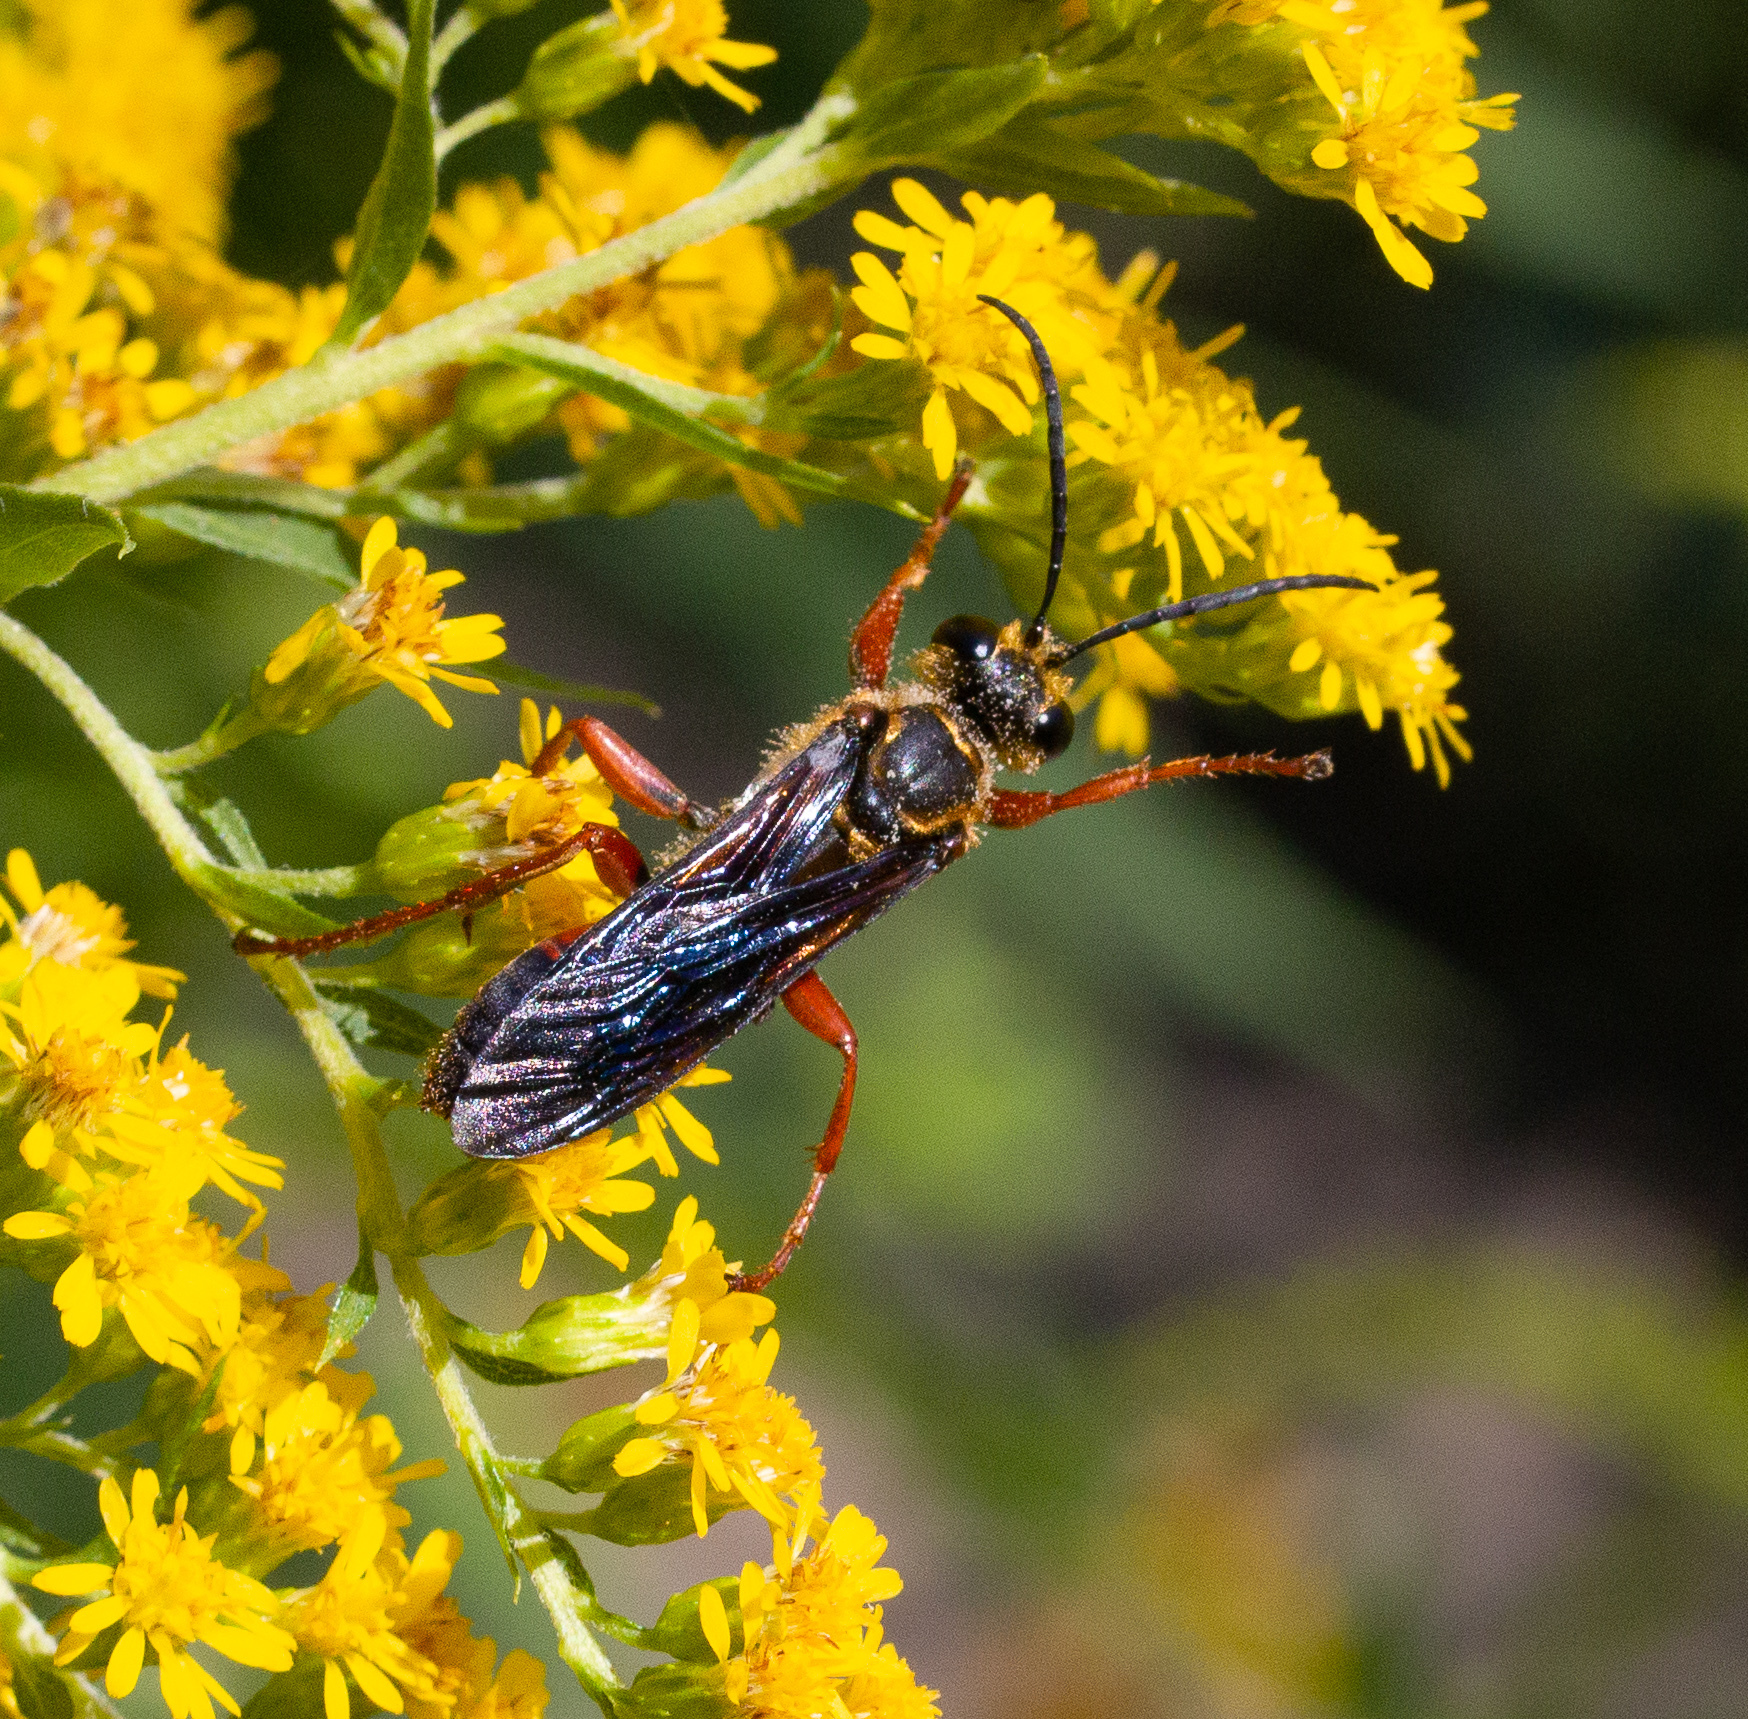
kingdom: Animalia
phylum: Arthropoda
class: Insecta
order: Hymenoptera
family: Sphecidae
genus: Sphex
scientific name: Sphex ichneumoneus
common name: Great golden digger wasp
